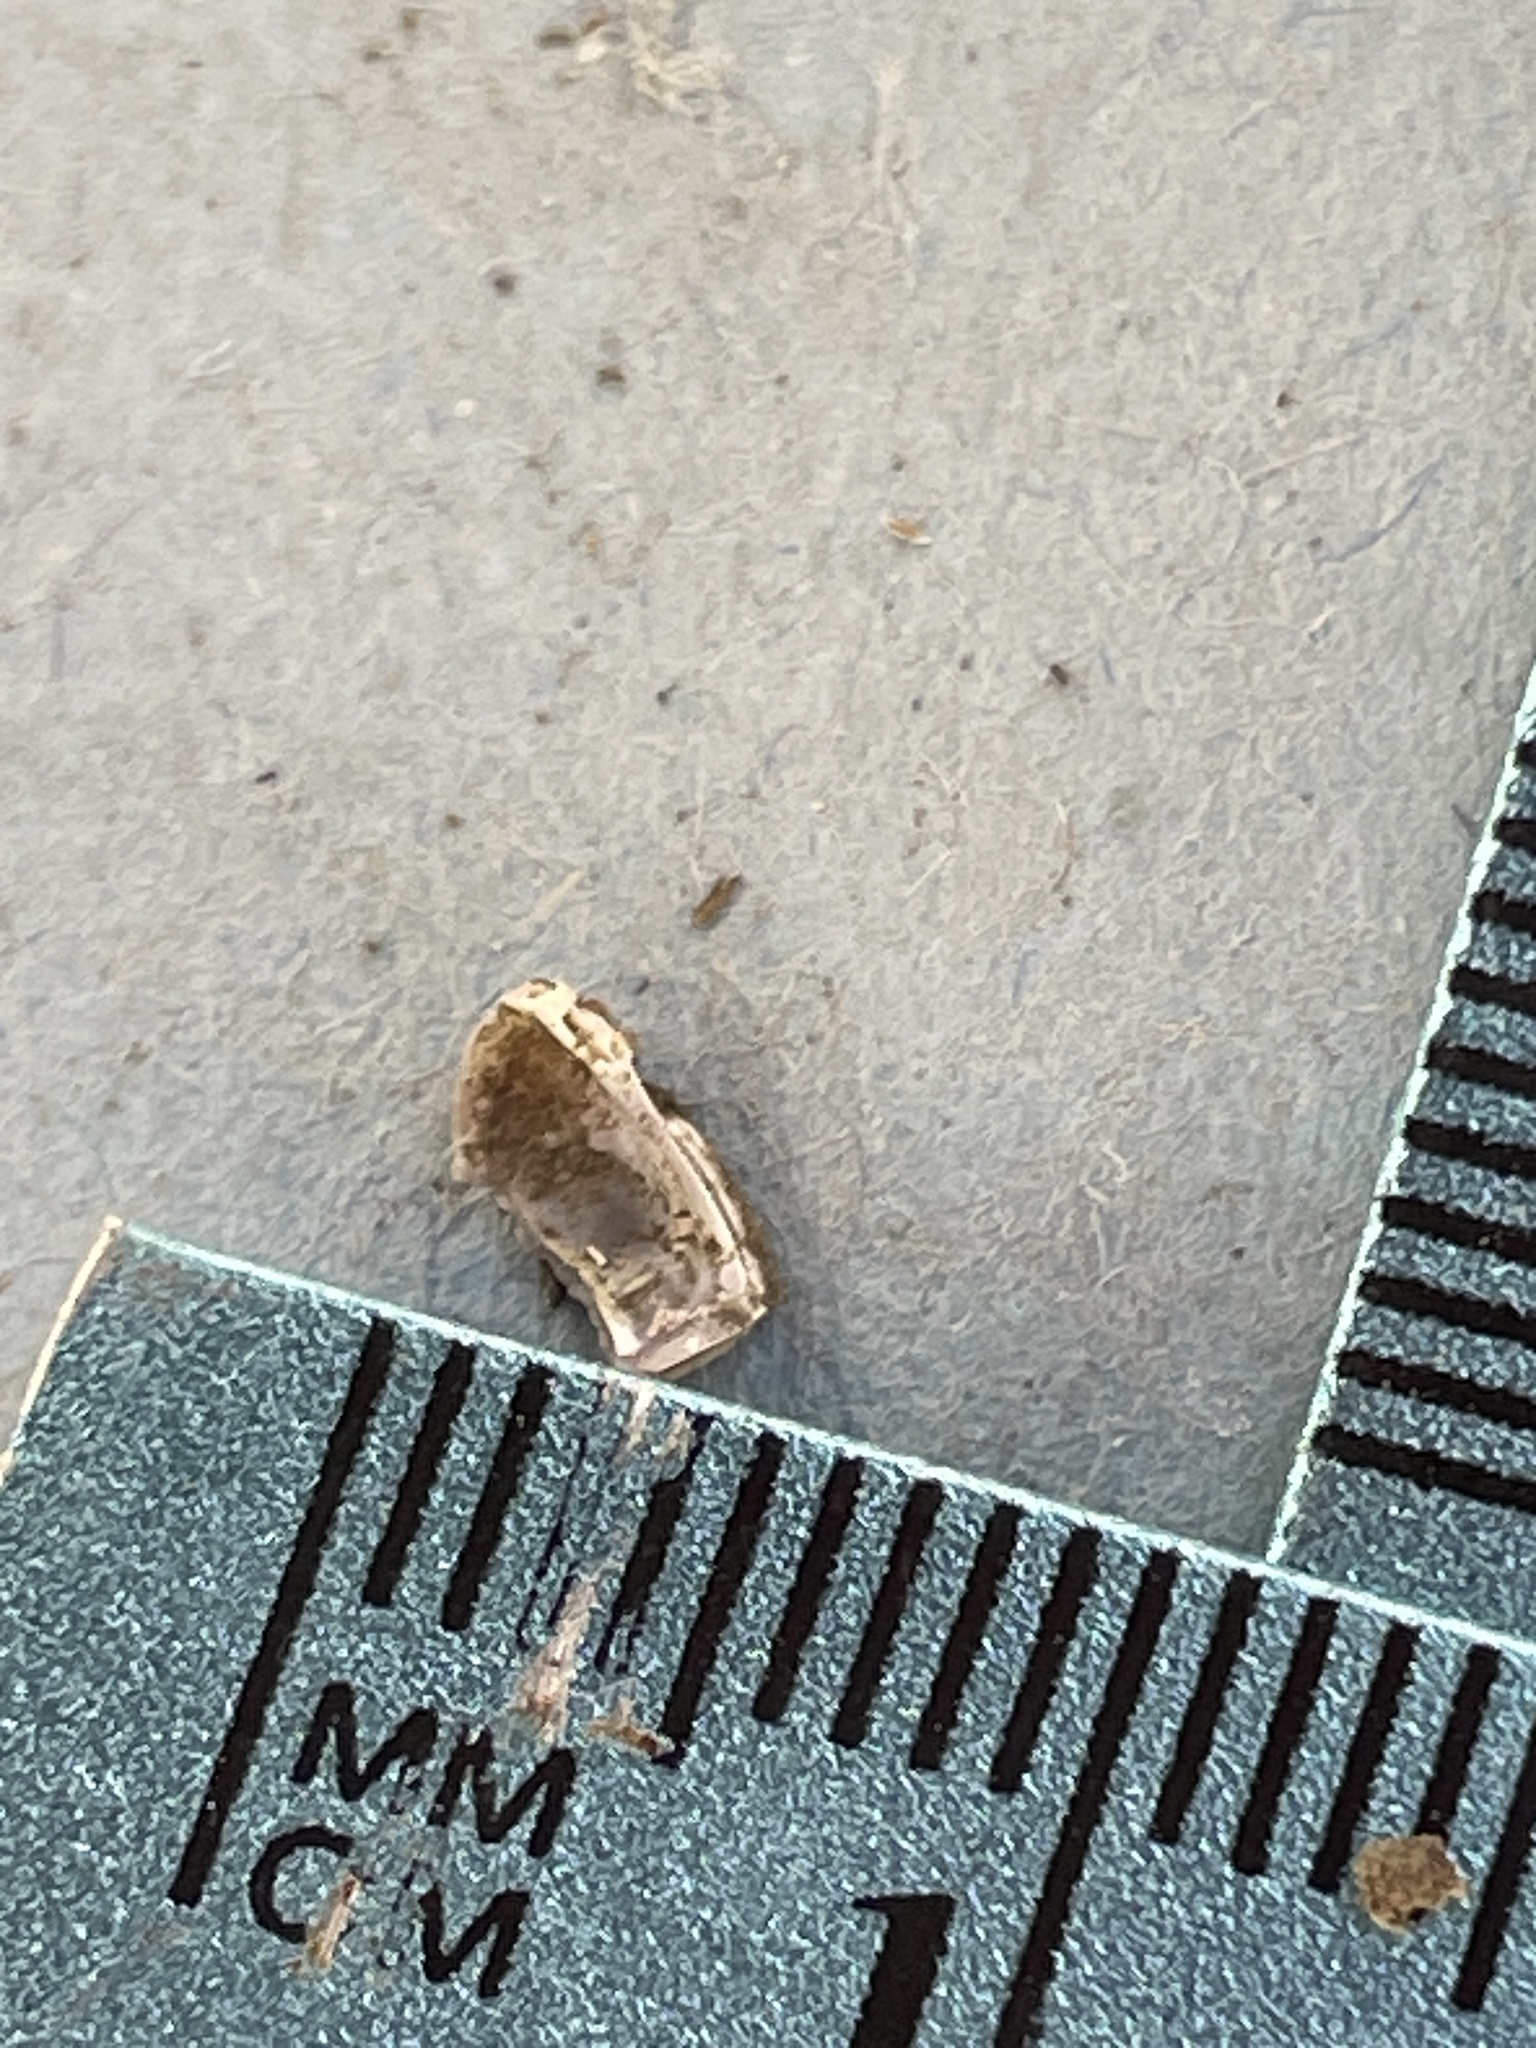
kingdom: Animalia
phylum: Mollusca
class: Bivalvia
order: Venerida
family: Cyrenidae
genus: Corbicula
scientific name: Corbicula fluminea
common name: Asian clam
